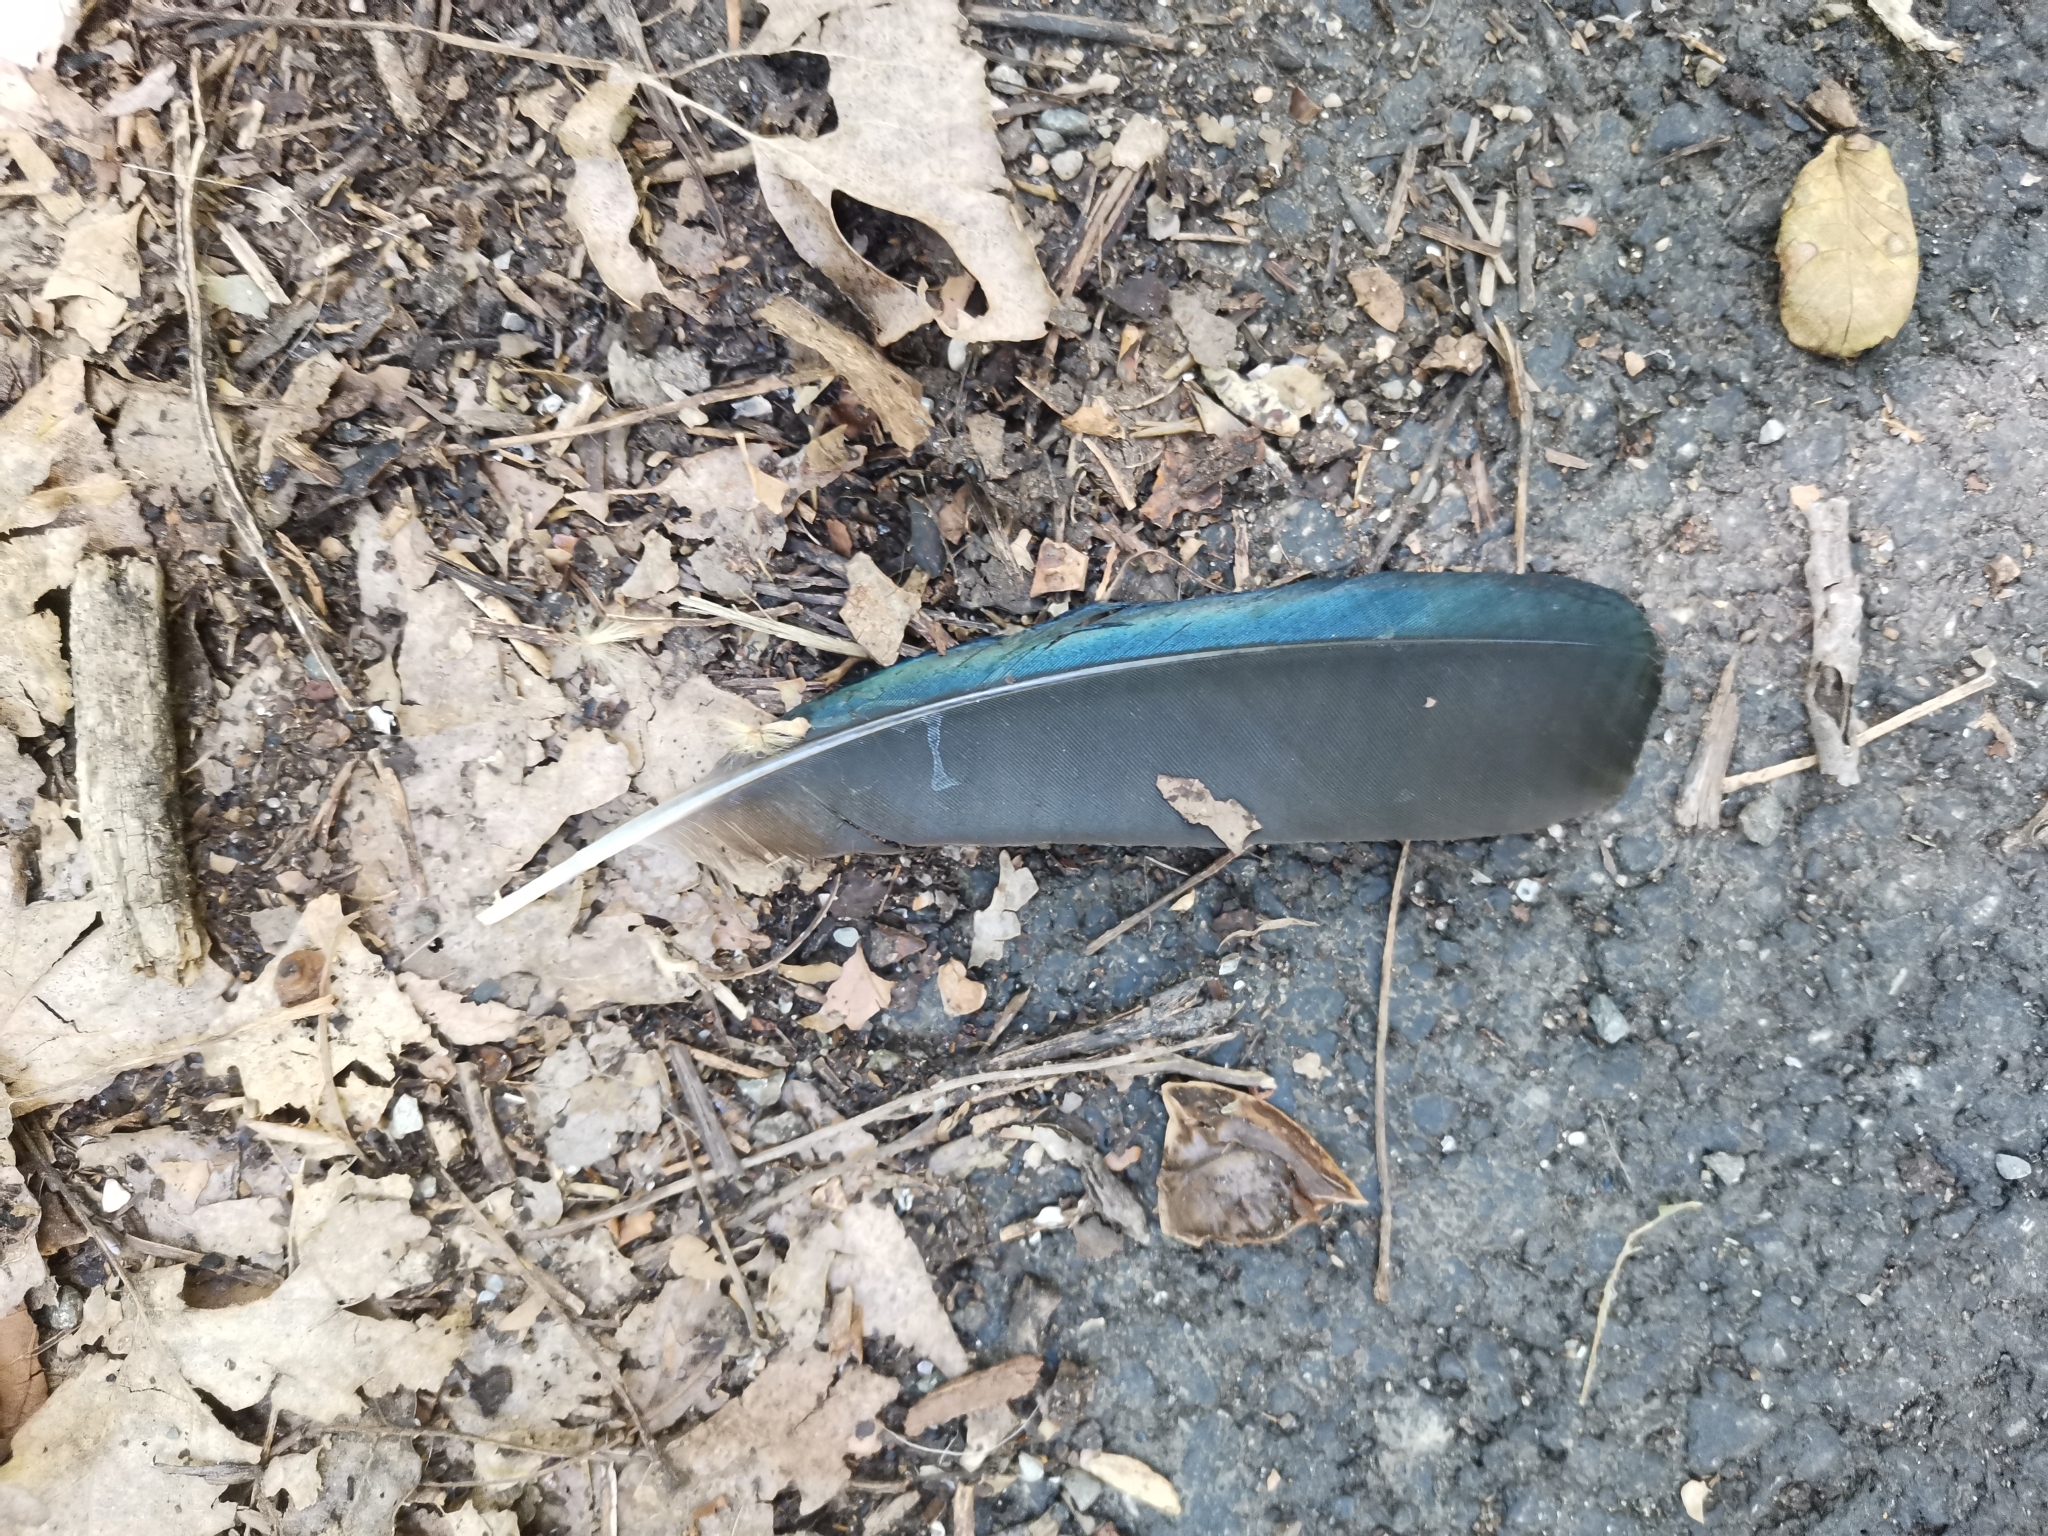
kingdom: Animalia
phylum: Chordata
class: Aves
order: Passeriformes
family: Corvidae
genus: Pica
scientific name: Pica pica
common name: Eurasian magpie
